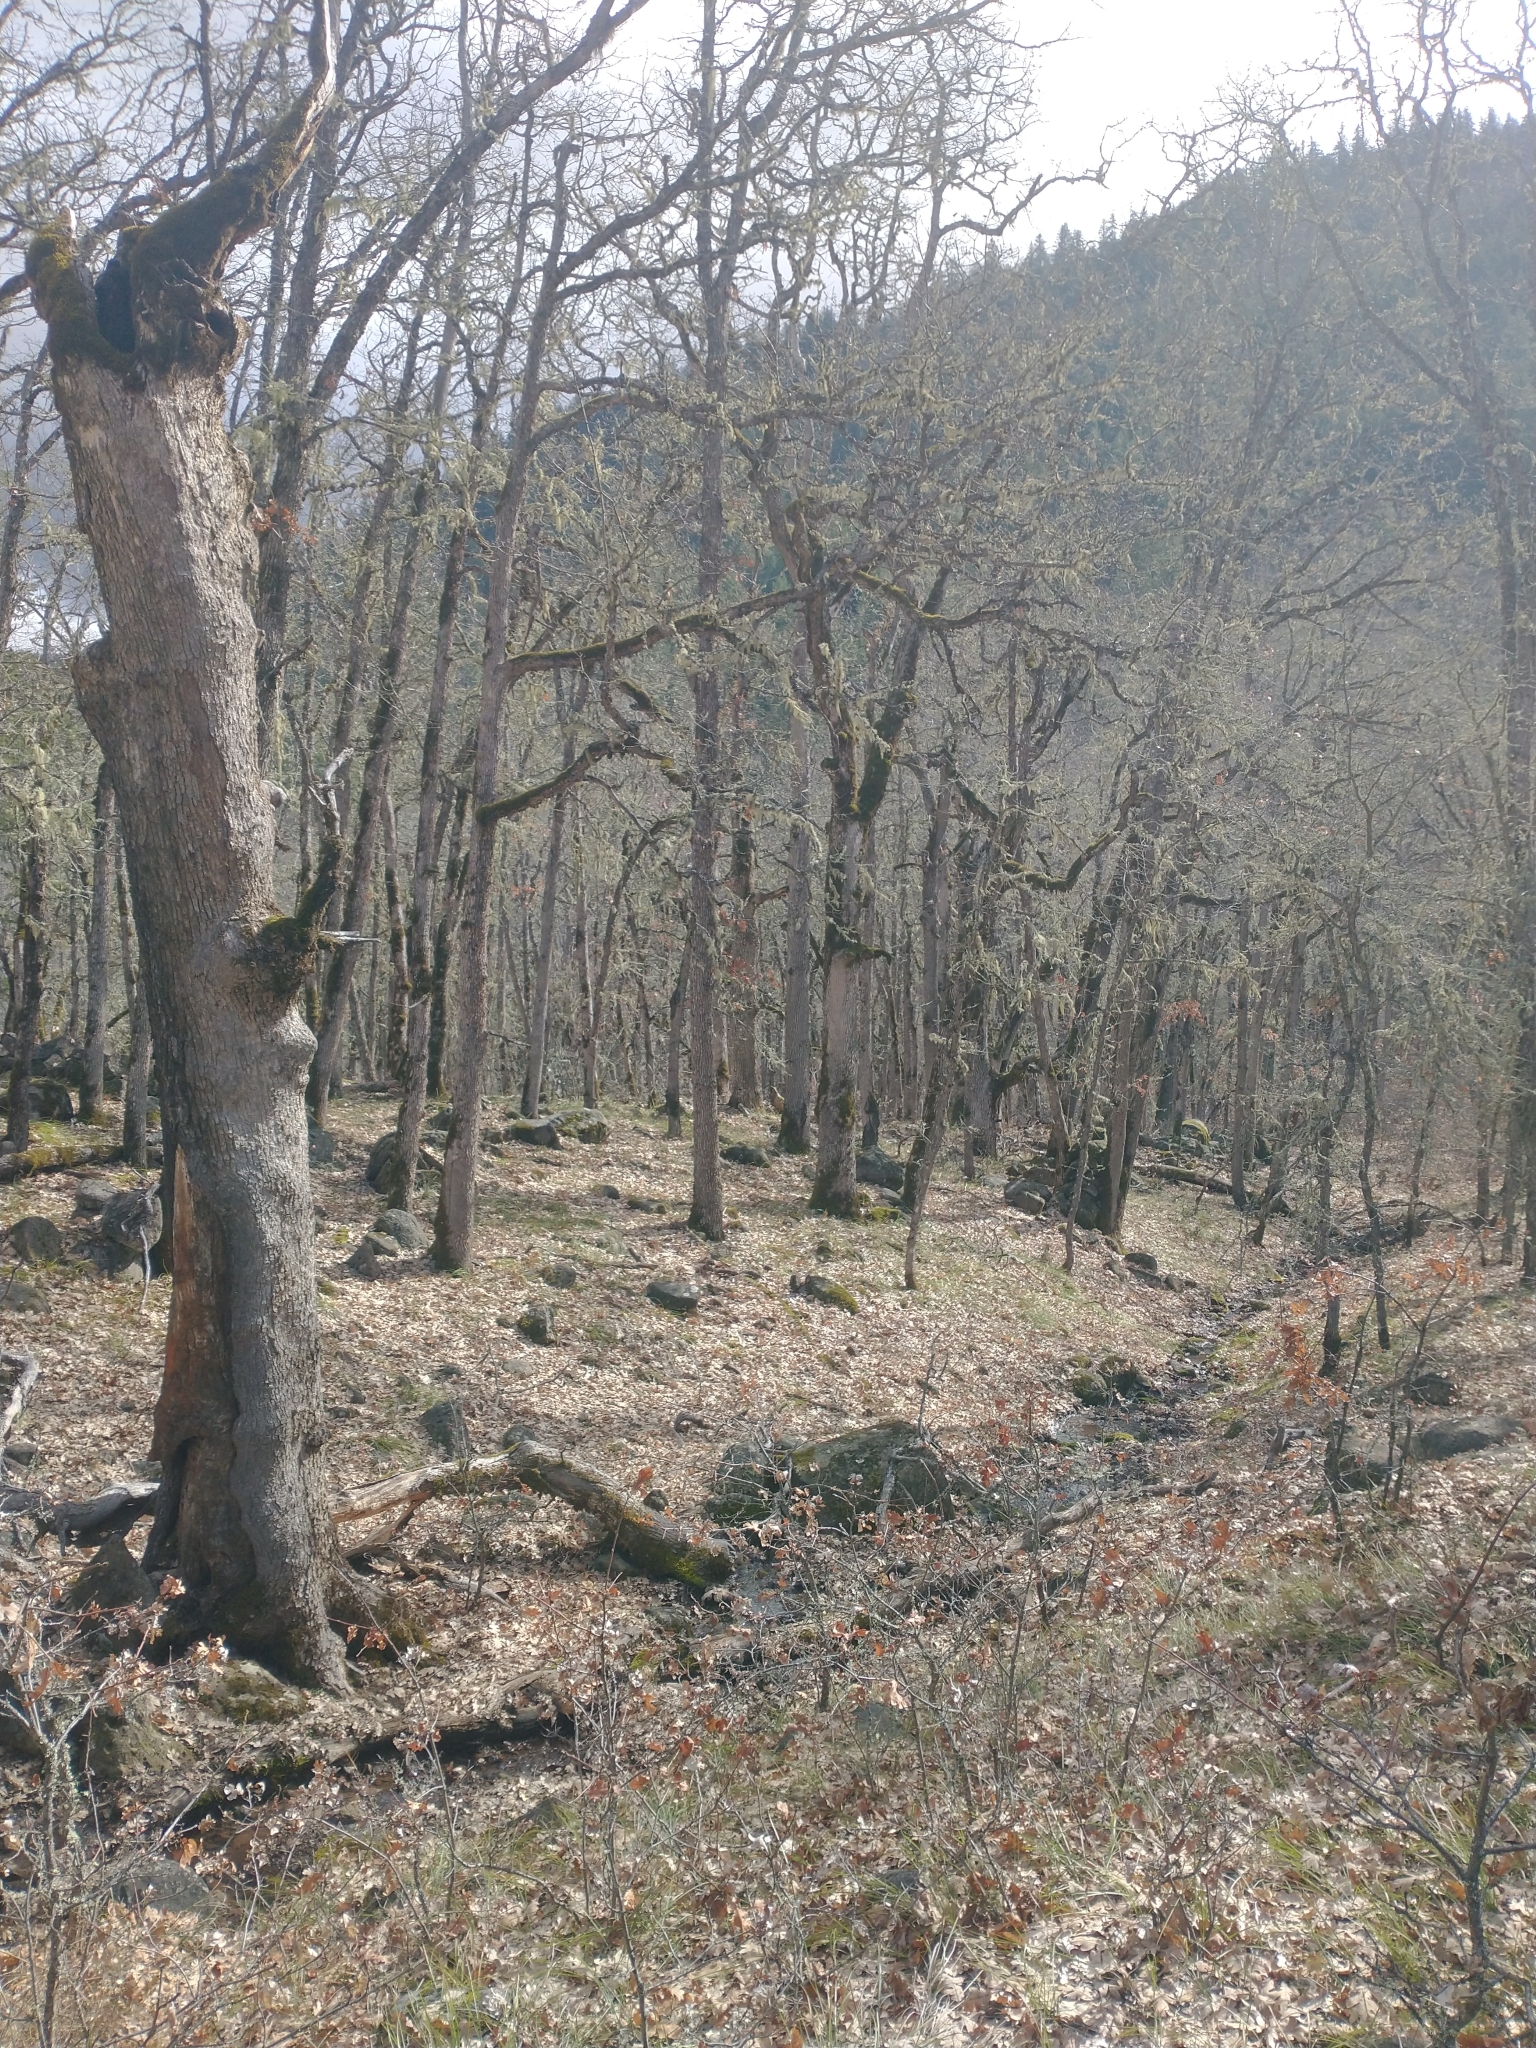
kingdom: Plantae
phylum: Tracheophyta
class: Magnoliopsida
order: Fagales
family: Fagaceae
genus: Quercus
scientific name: Quercus garryana
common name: Garry oak
